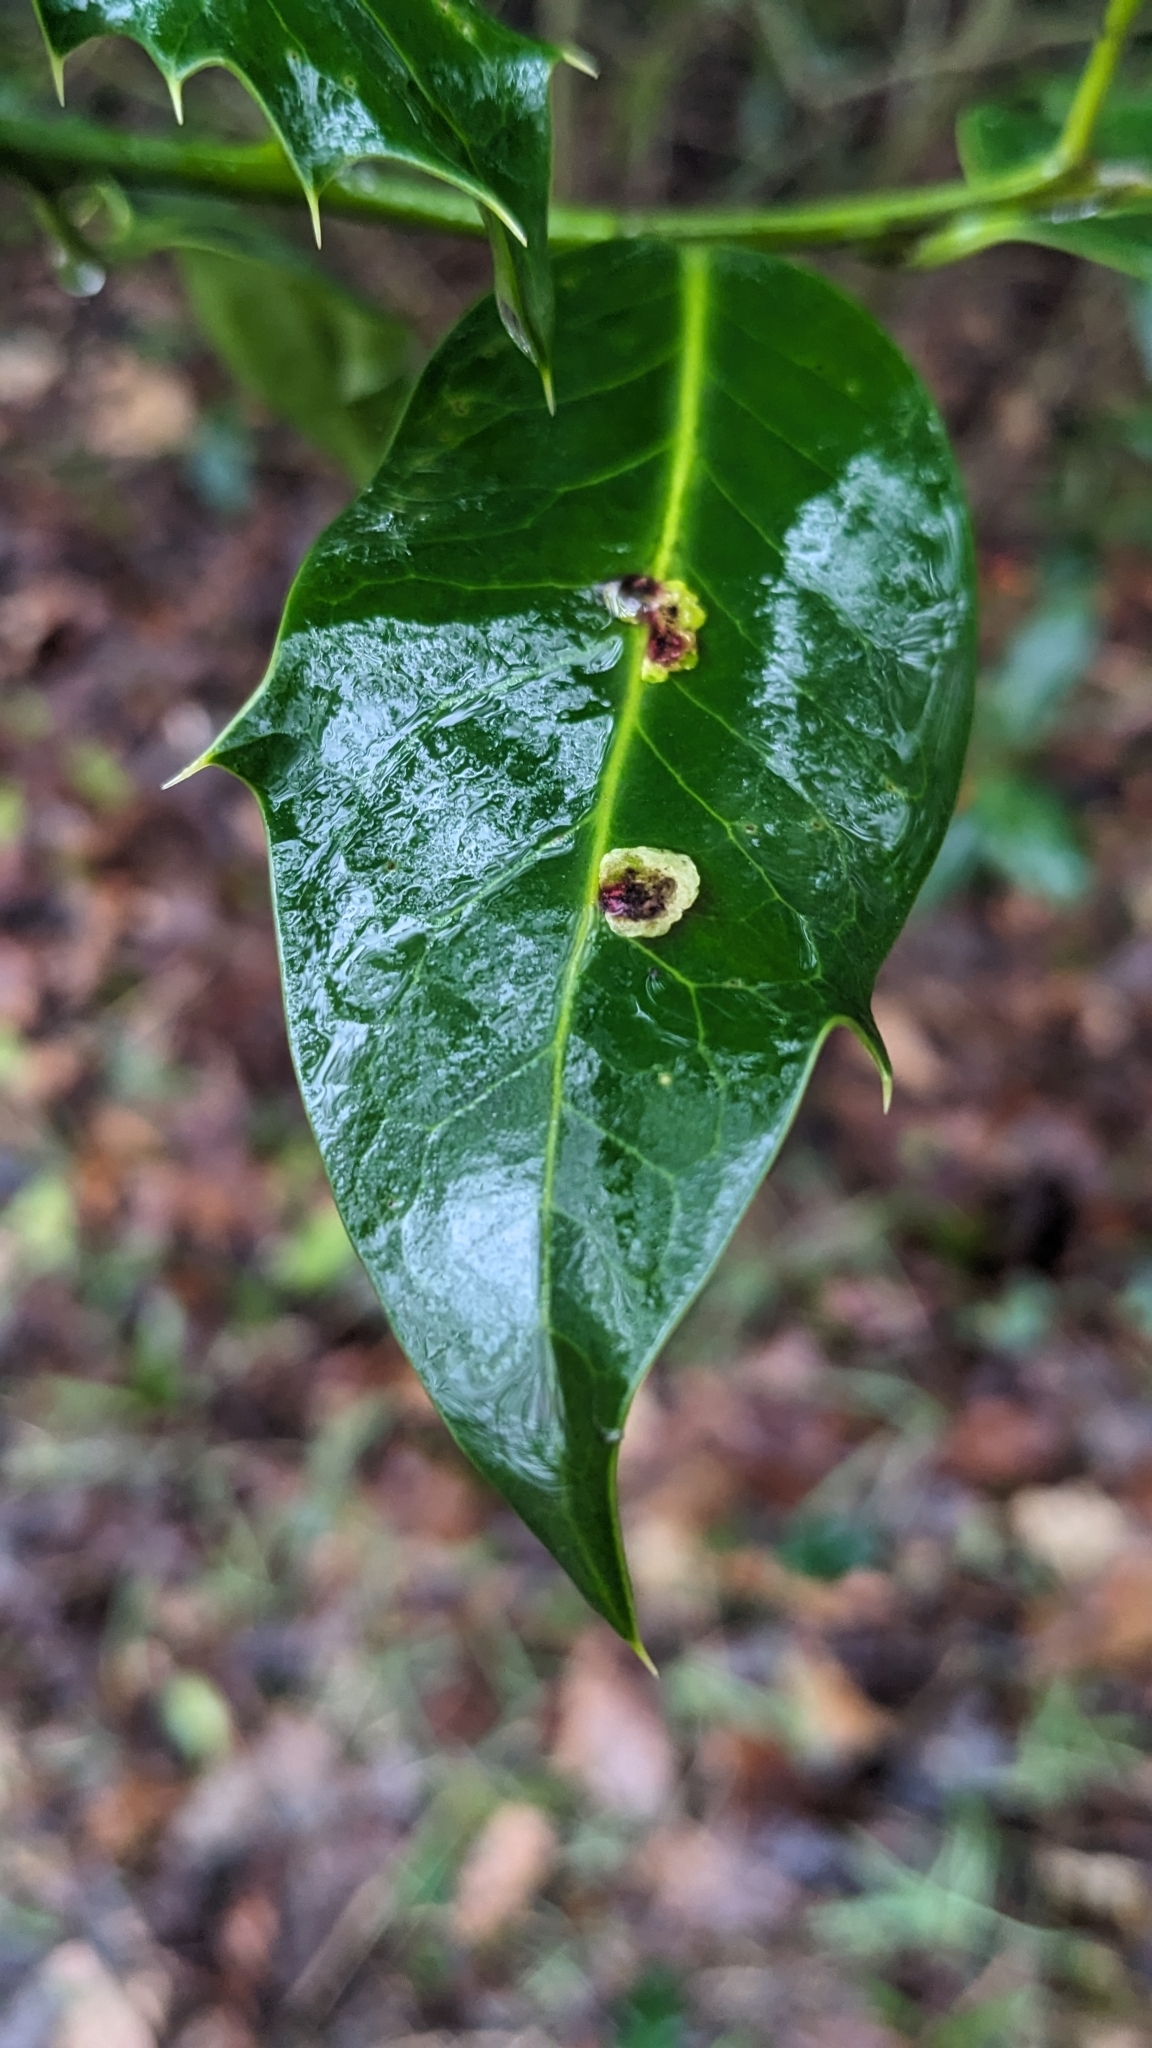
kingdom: Animalia
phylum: Arthropoda
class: Insecta
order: Diptera
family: Agromyzidae
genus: Phytomyza
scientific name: Phytomyza ilicis
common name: Holly leafminer
